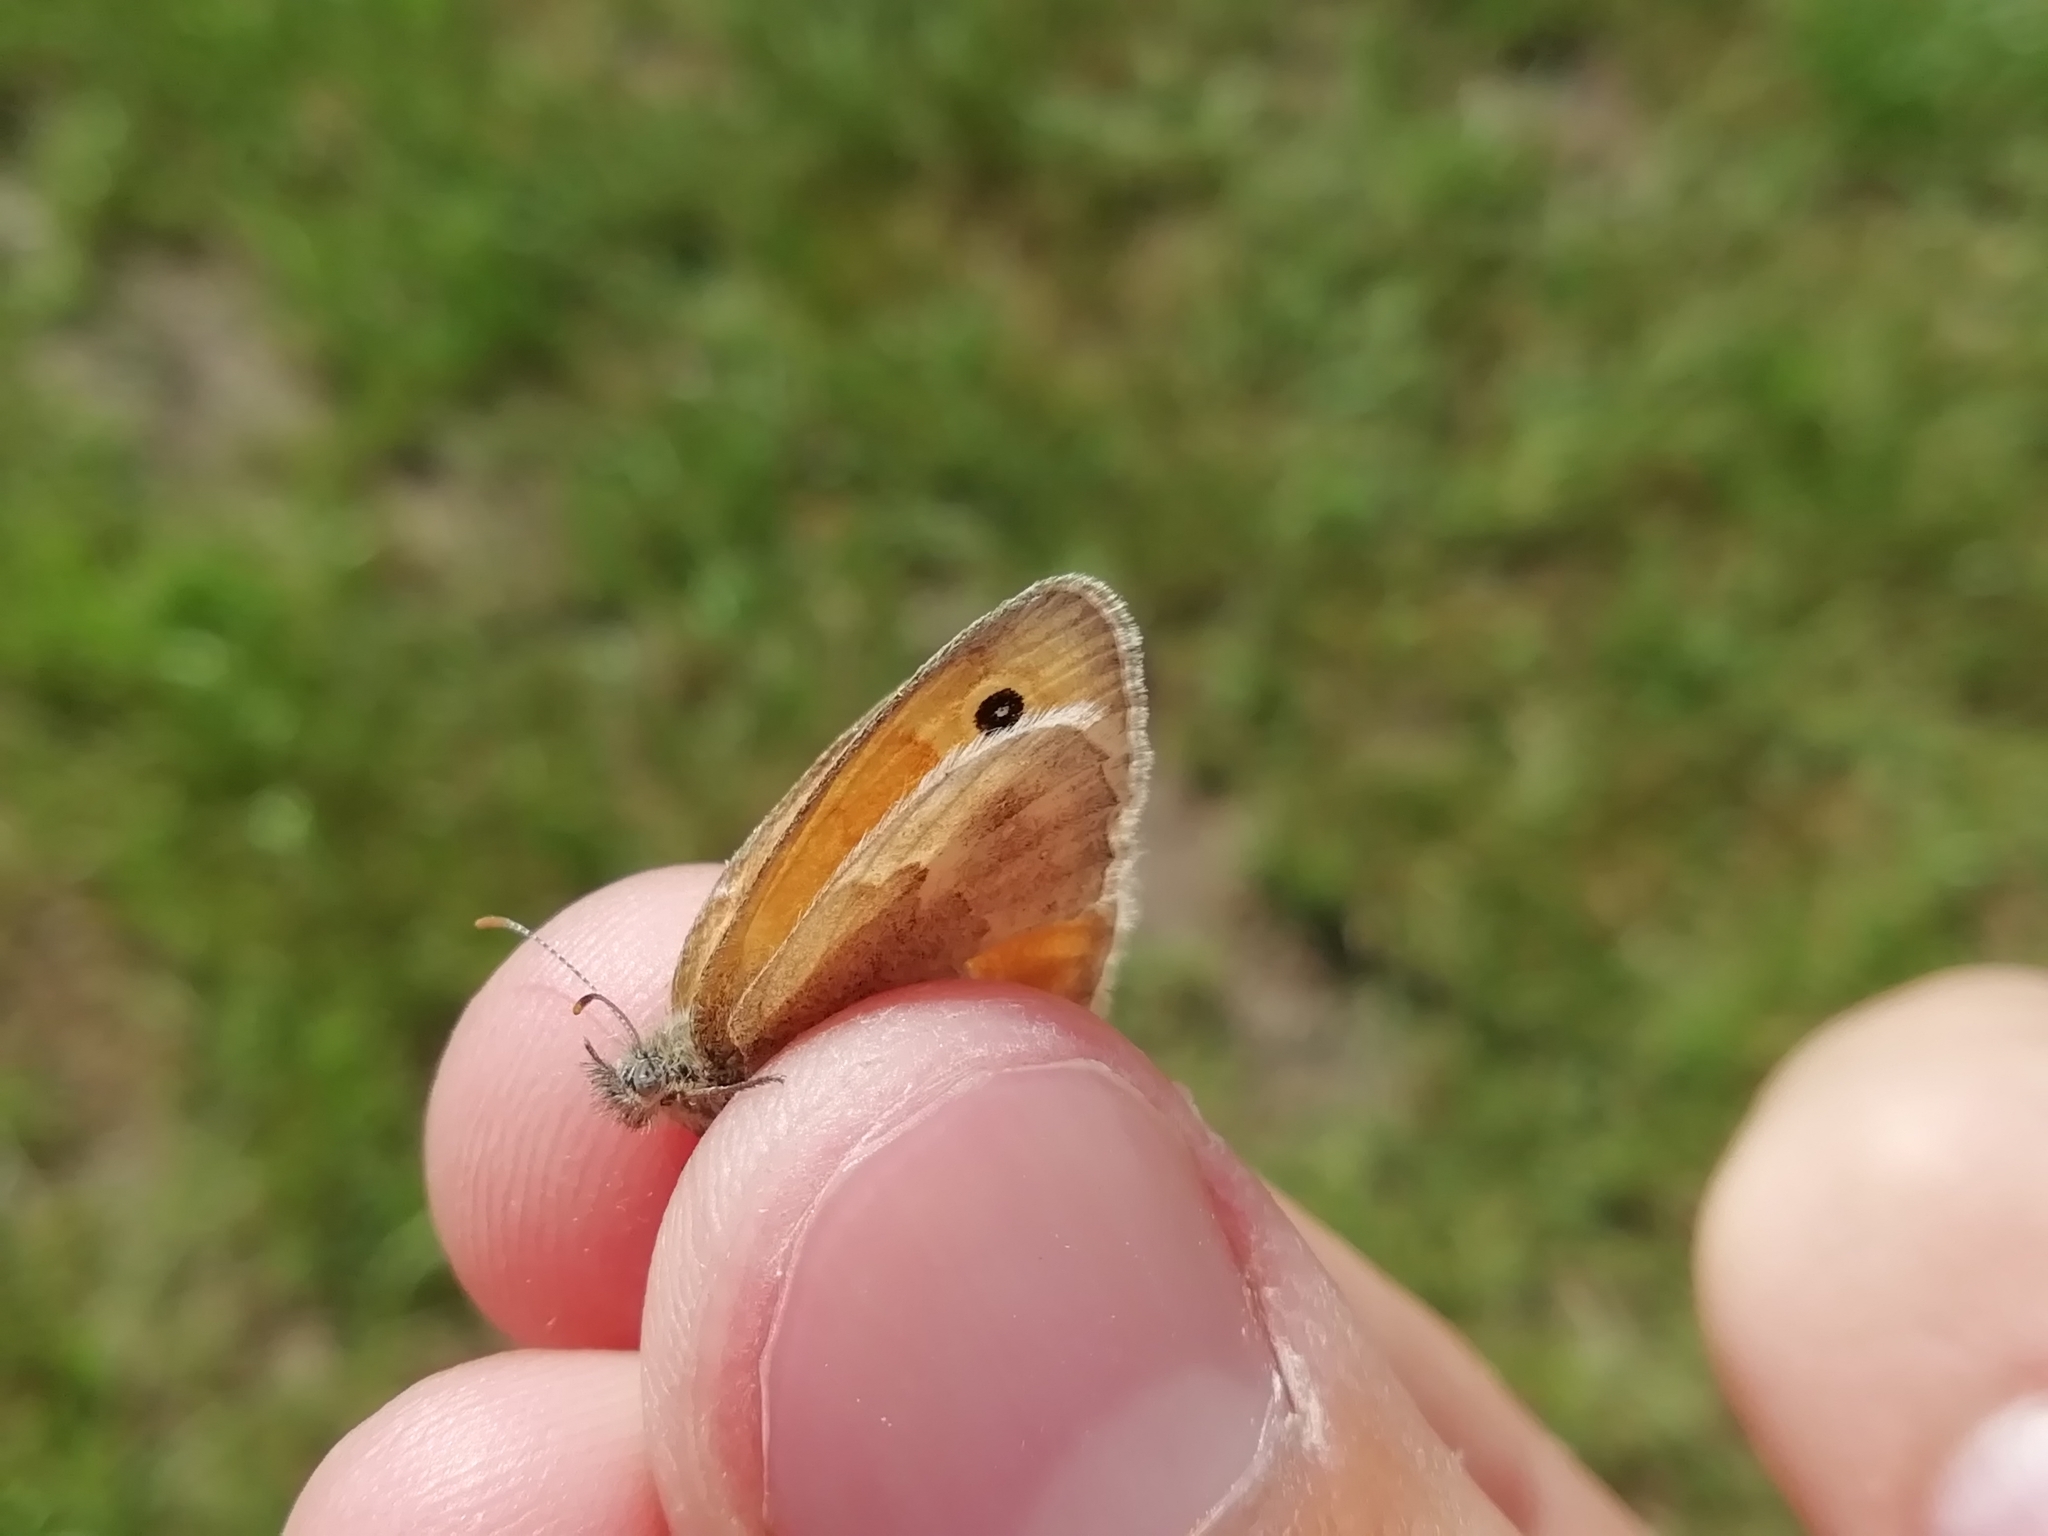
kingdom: Animalia
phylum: Arthropoda
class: Insecta
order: Lepidoptera
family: Nymphalidae
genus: Coenonympha
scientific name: Coenonympha pamphilus
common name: Small heath
